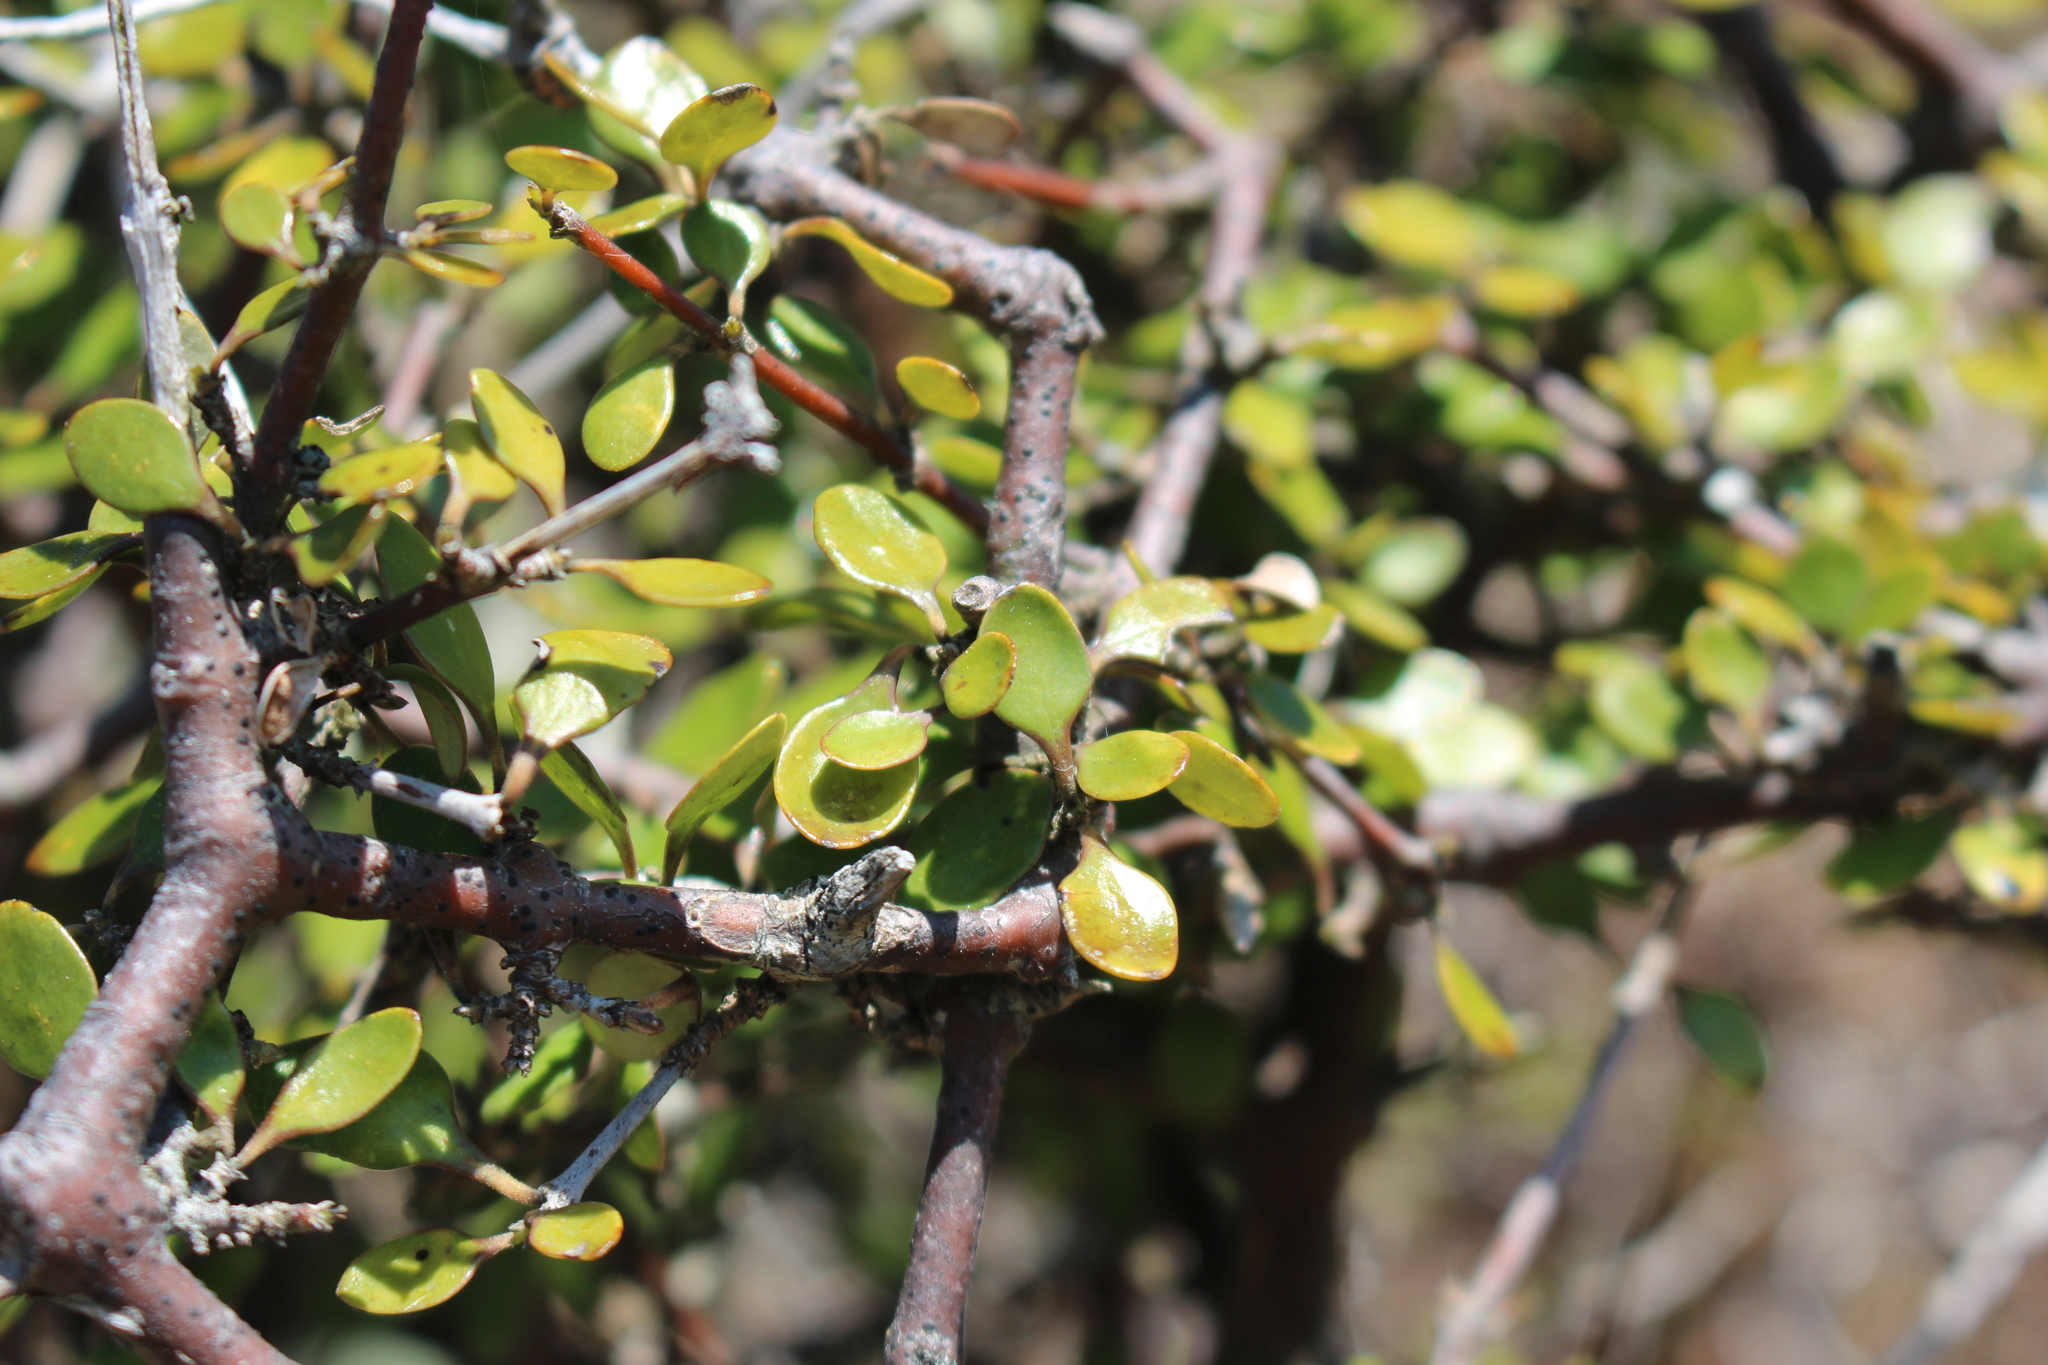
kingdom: Plantae
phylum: Tracheophyta
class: Magnoliopsida
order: Gentianales
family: Rubiaceae
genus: Coprosma
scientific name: Coprosma crassifolia
